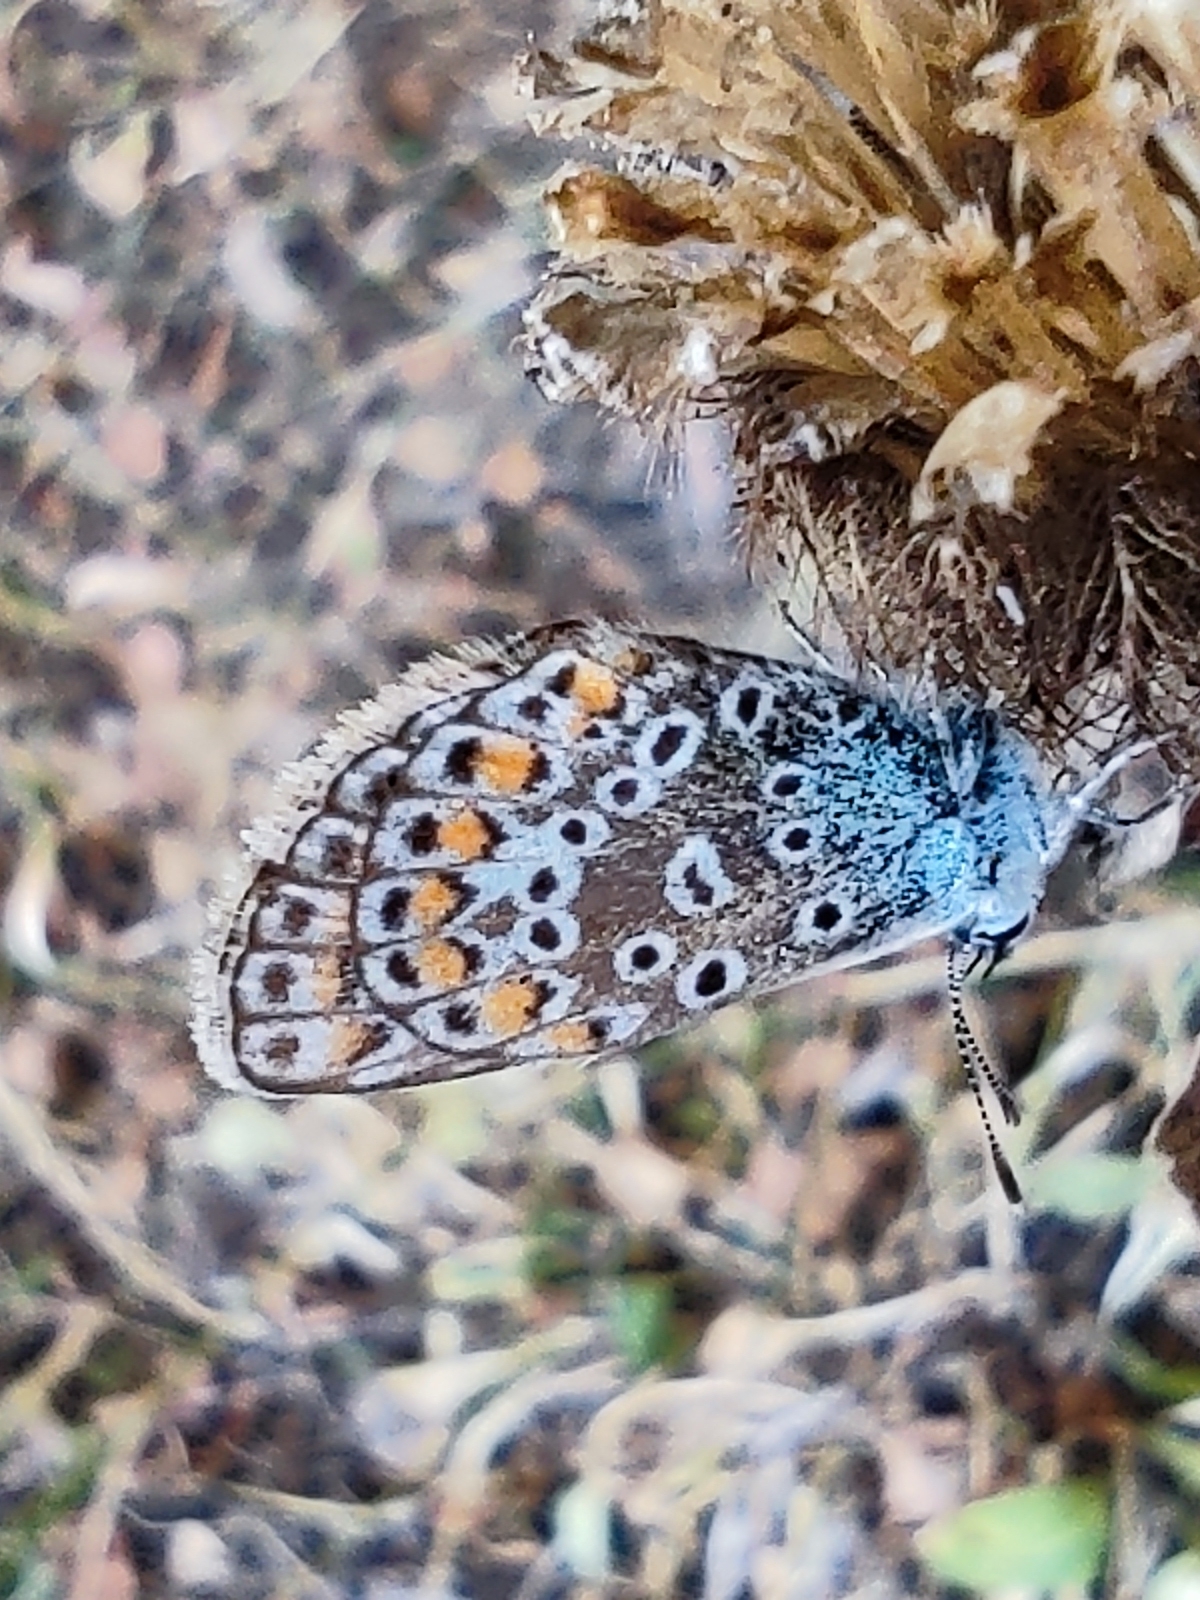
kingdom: Animalia
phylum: Arthropoda
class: Insecta
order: Lepidoptera
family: Lycaenidae
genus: Polyommatus
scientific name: Polyommatus icarus
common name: Common blue
